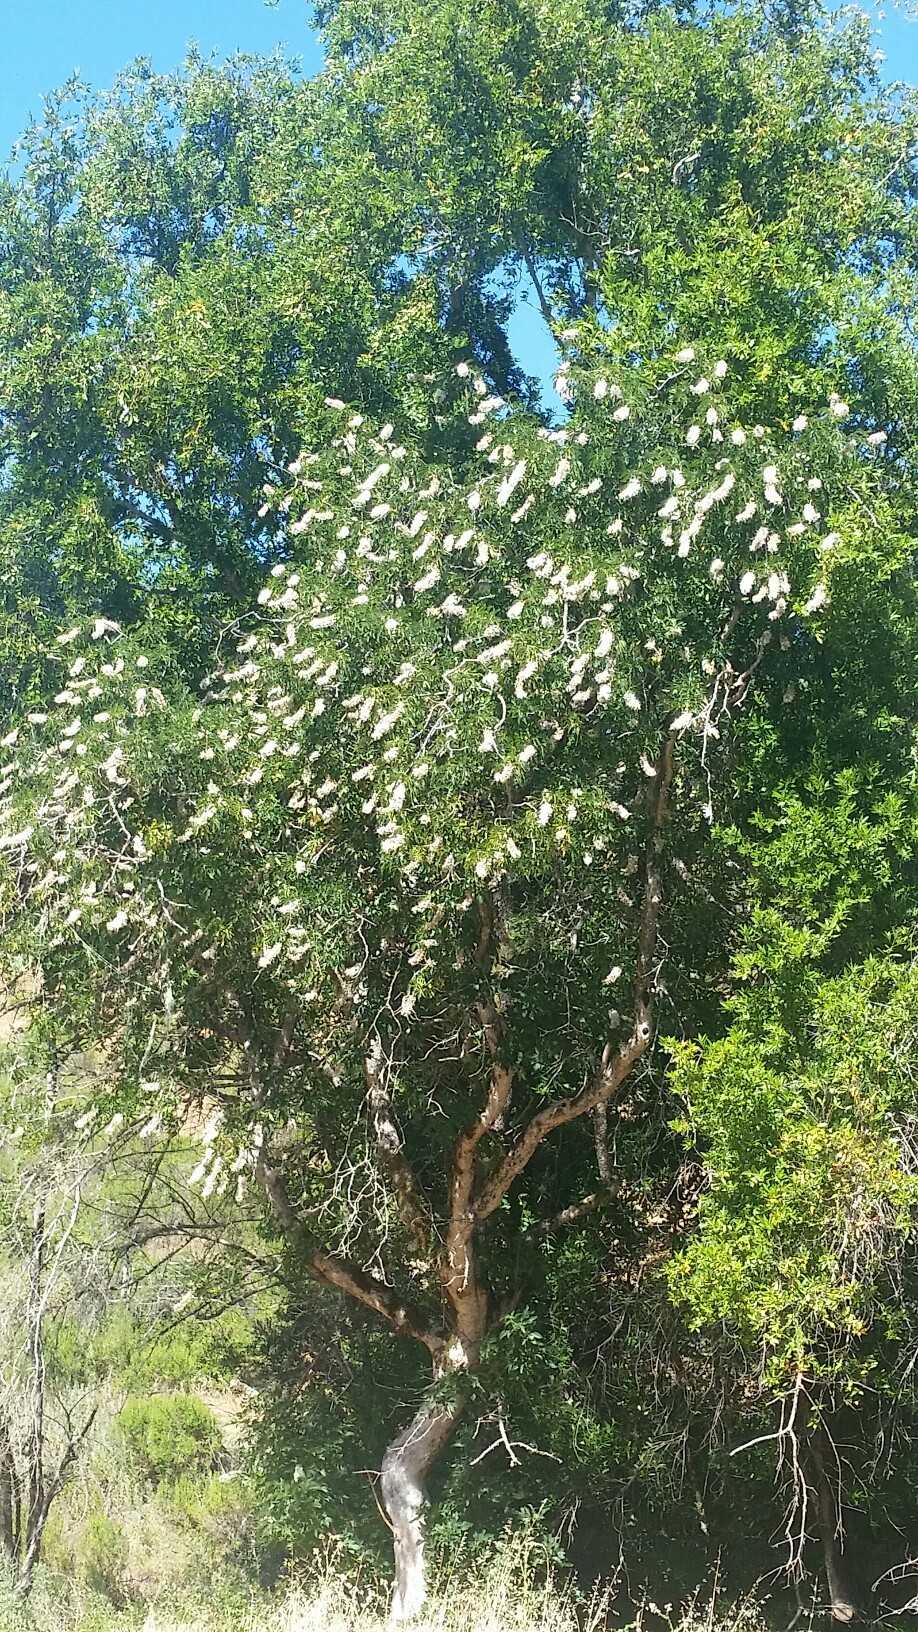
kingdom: Plantae
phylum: Tracheophyta
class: Magnoliopsida
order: Sapindales
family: Sapindaceae
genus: Aesculus
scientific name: Aesculus californica
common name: California buckeye
